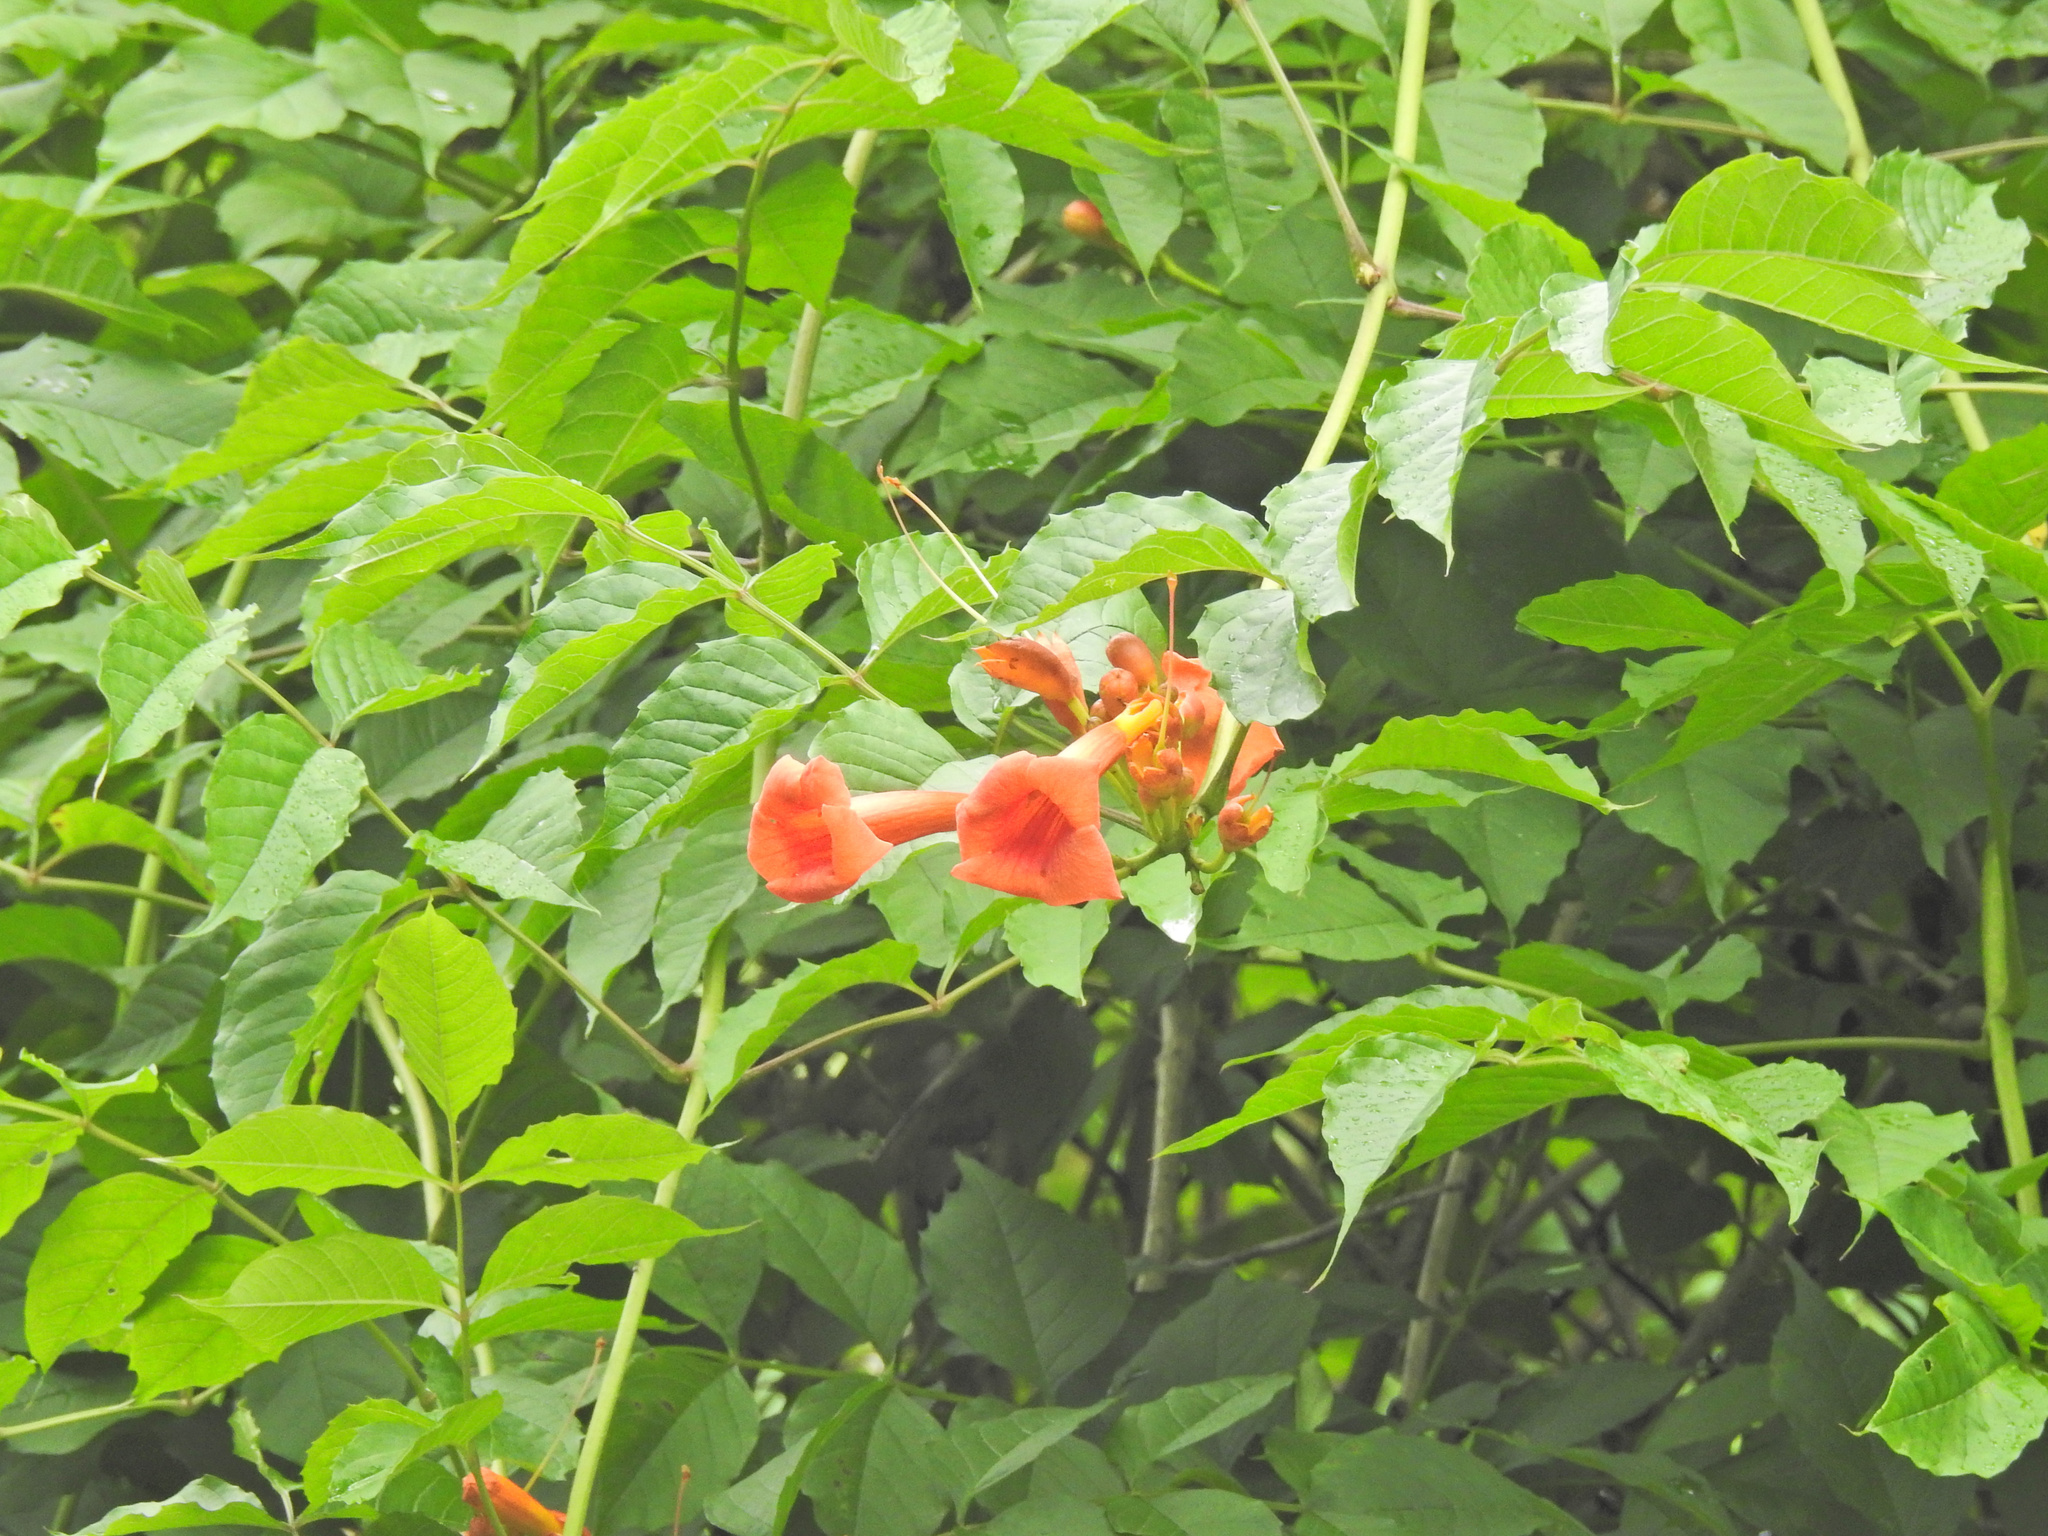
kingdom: Plantae
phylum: Tracheophyta
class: Magnoliopsida
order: Lamiales
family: Bignoniaceae
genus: Campsis
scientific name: Campsis radicans
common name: Trumpet-creeper
